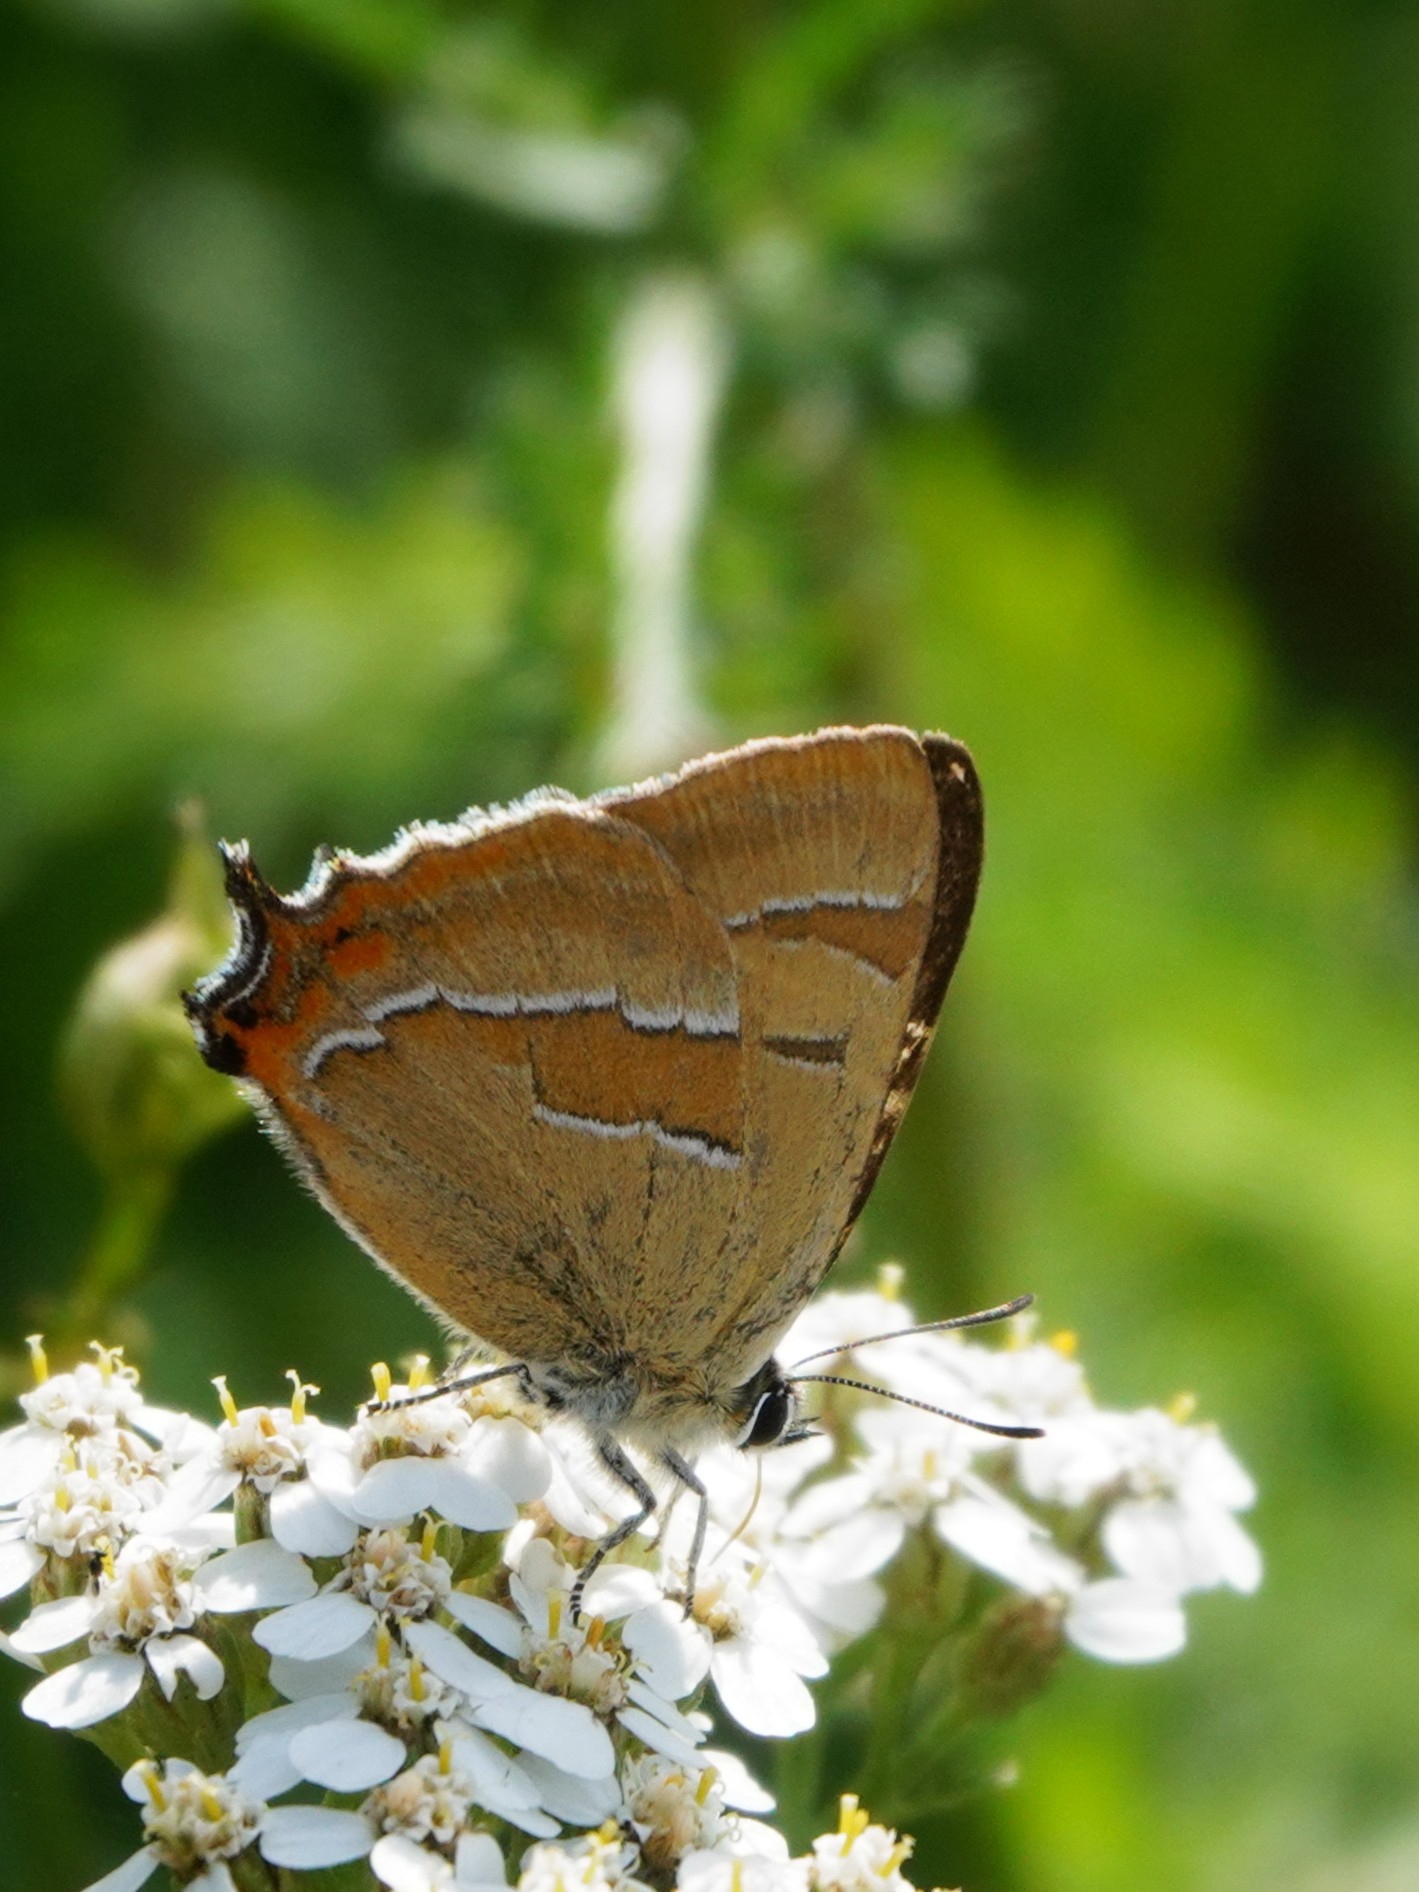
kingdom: Animalia
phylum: Arthropoda
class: Insecta
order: Lepidoptera
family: Lycaenidae
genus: Thecla
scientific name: Thecla betulae
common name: Brown hairstreak
